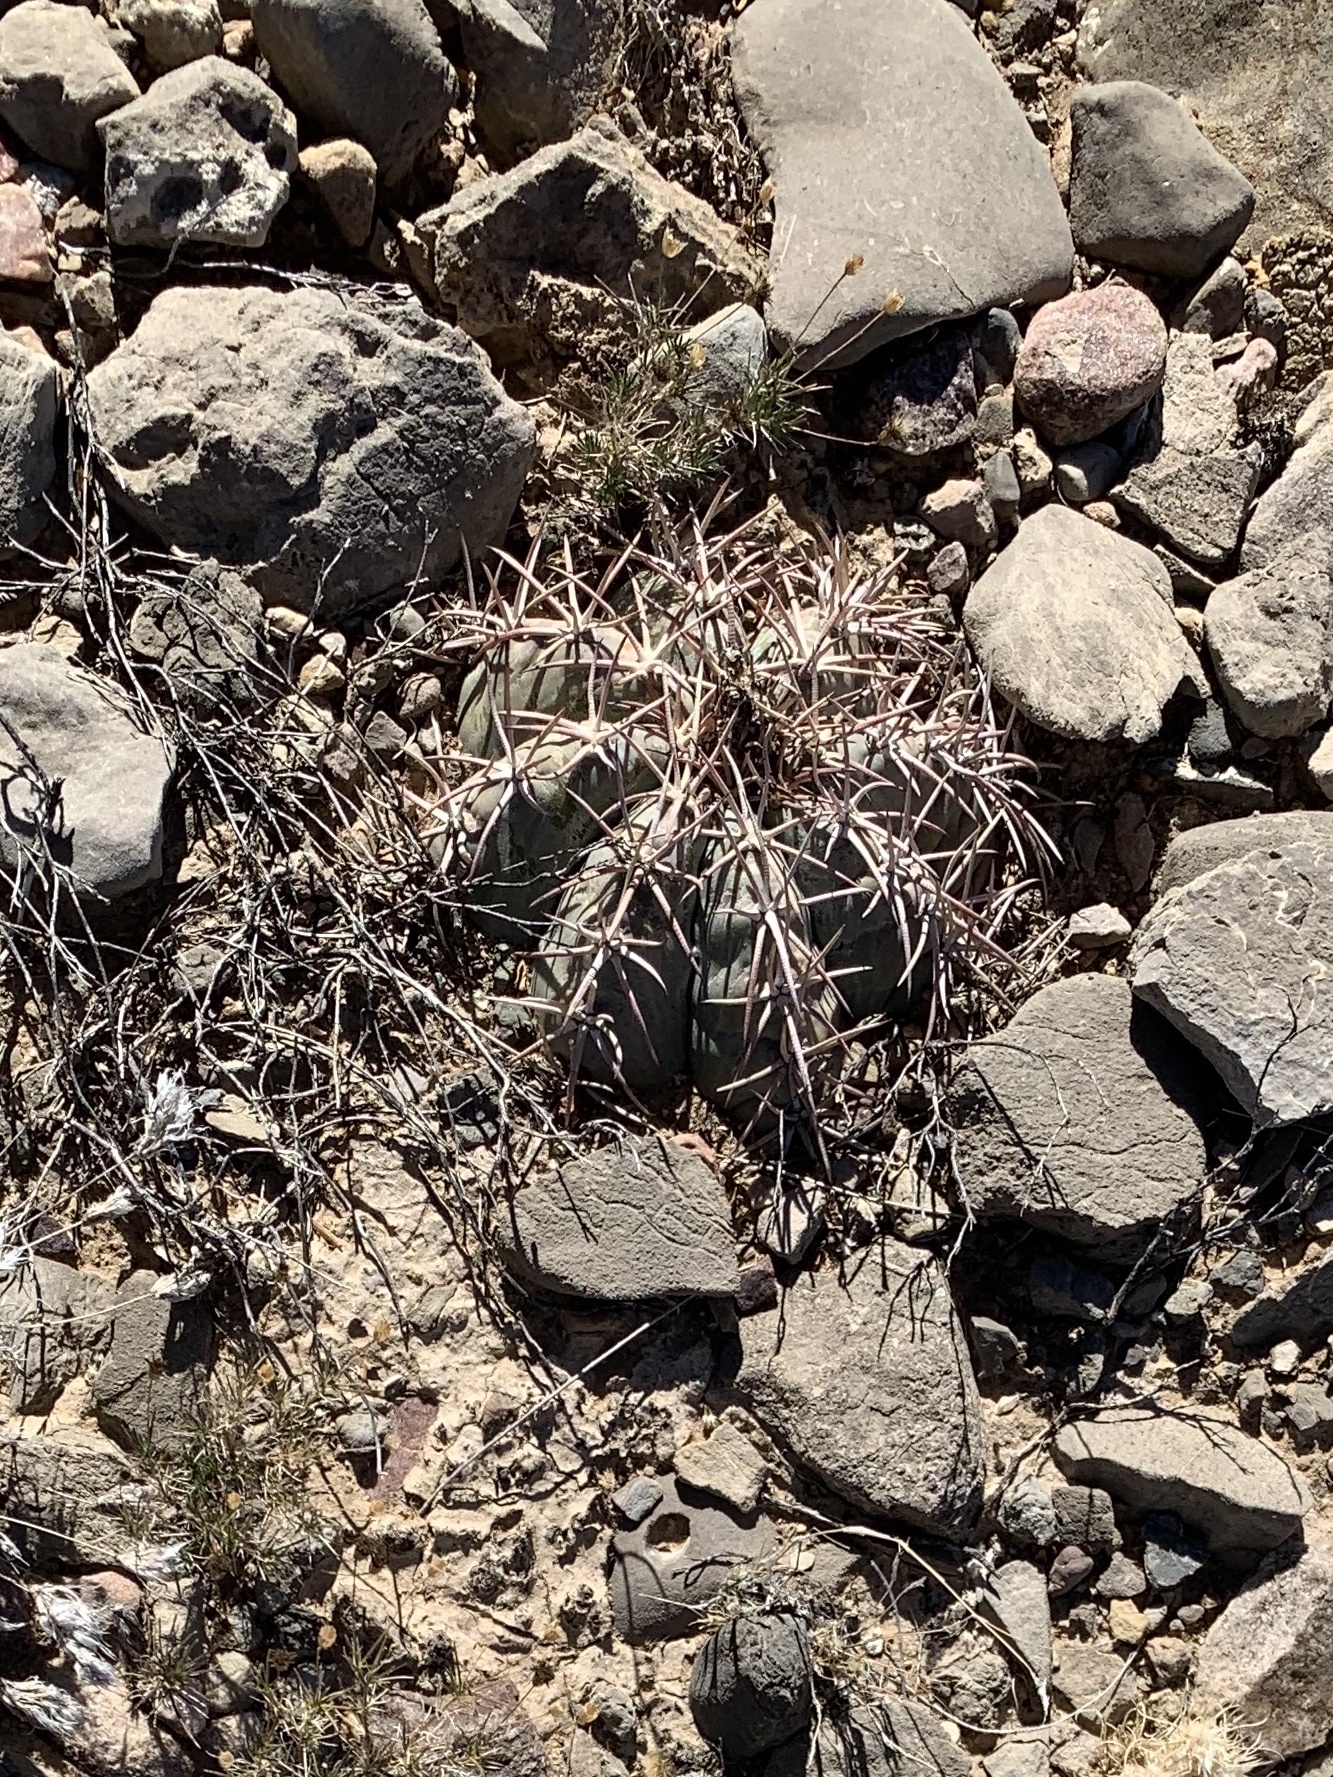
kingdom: Plantae
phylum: Tracheophyta
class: Magnoliopsida
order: Caryophyllales
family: Cactaceae
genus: Echinocactus
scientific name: Echinocactus horizonthalonius
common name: Devilshead
